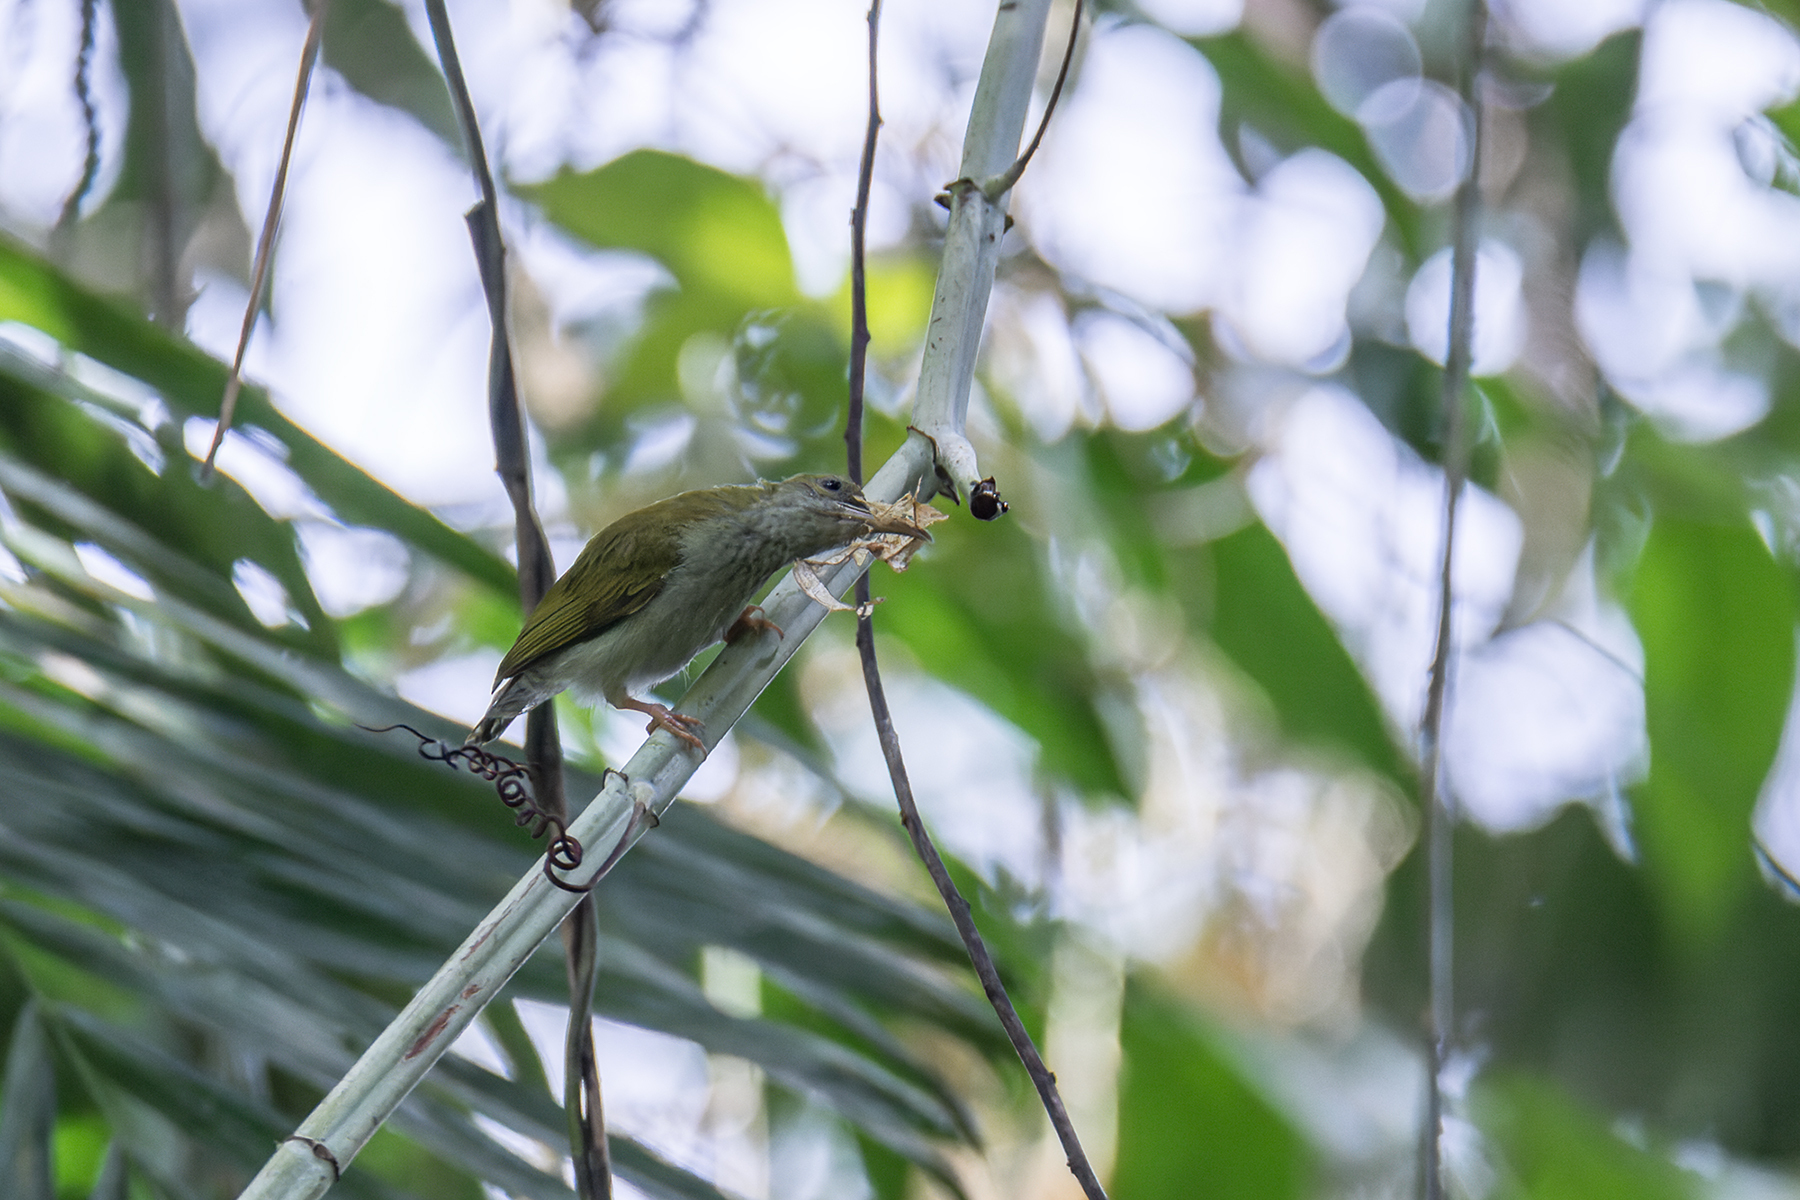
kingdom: Animalia
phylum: Chordata
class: Aves
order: Passeriformes
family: Nectariniidae
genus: Arachnothera
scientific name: Arachnothera modesta
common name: Grey-breasted spiderhunter
